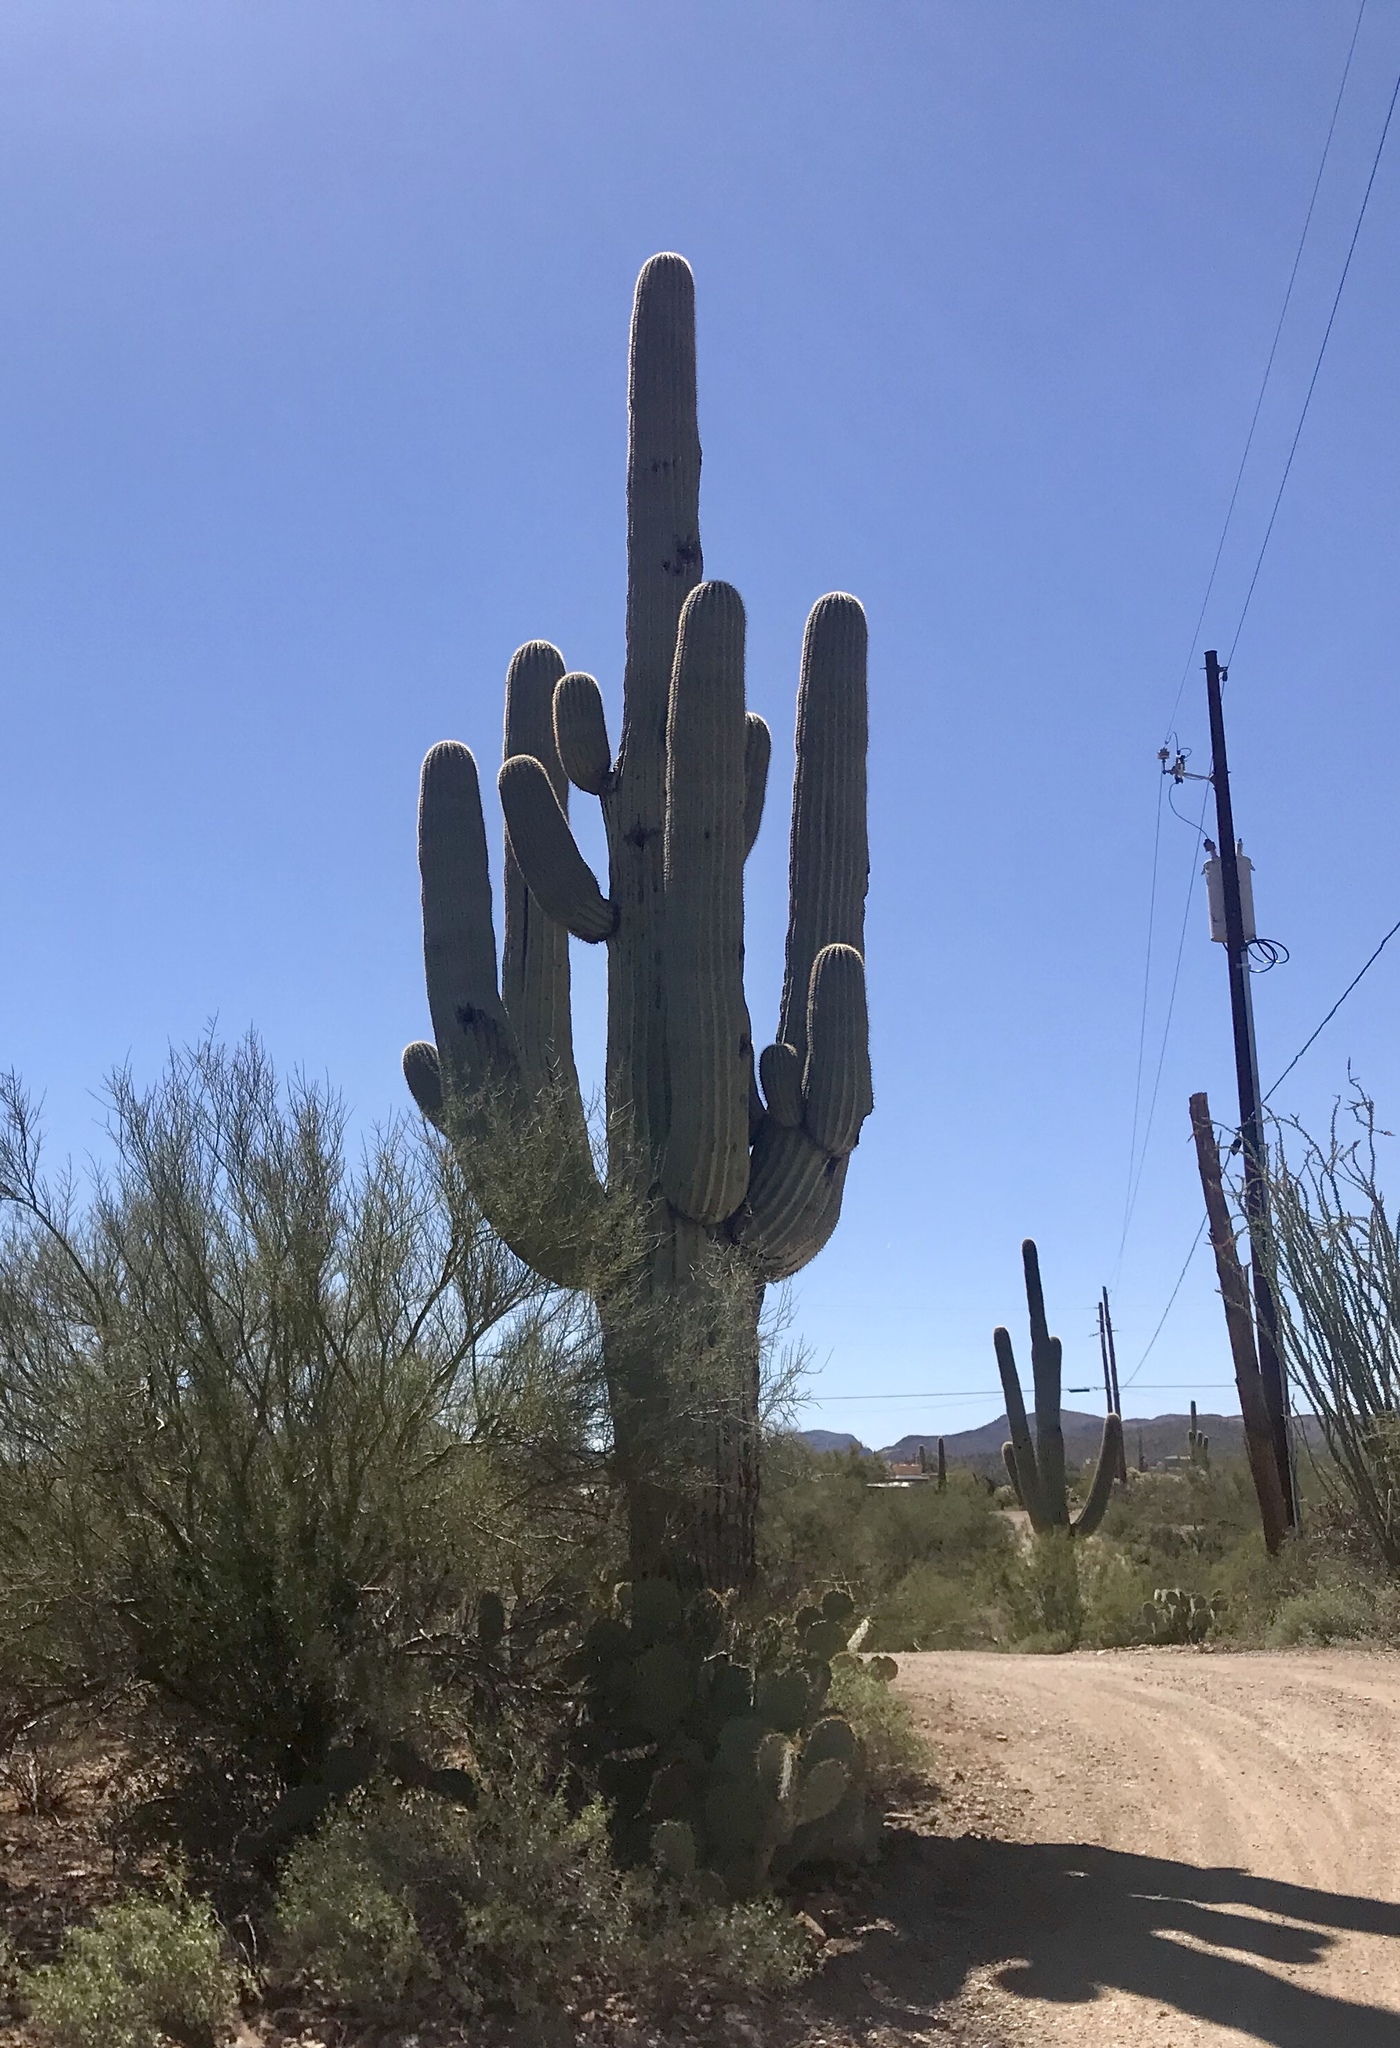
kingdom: Plantae
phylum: Tracheophyta
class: Magnoliopsida
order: Caryophyllales
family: Cactaceae
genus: Carnegiea
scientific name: Carnegiea gigantea
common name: Saguaro
